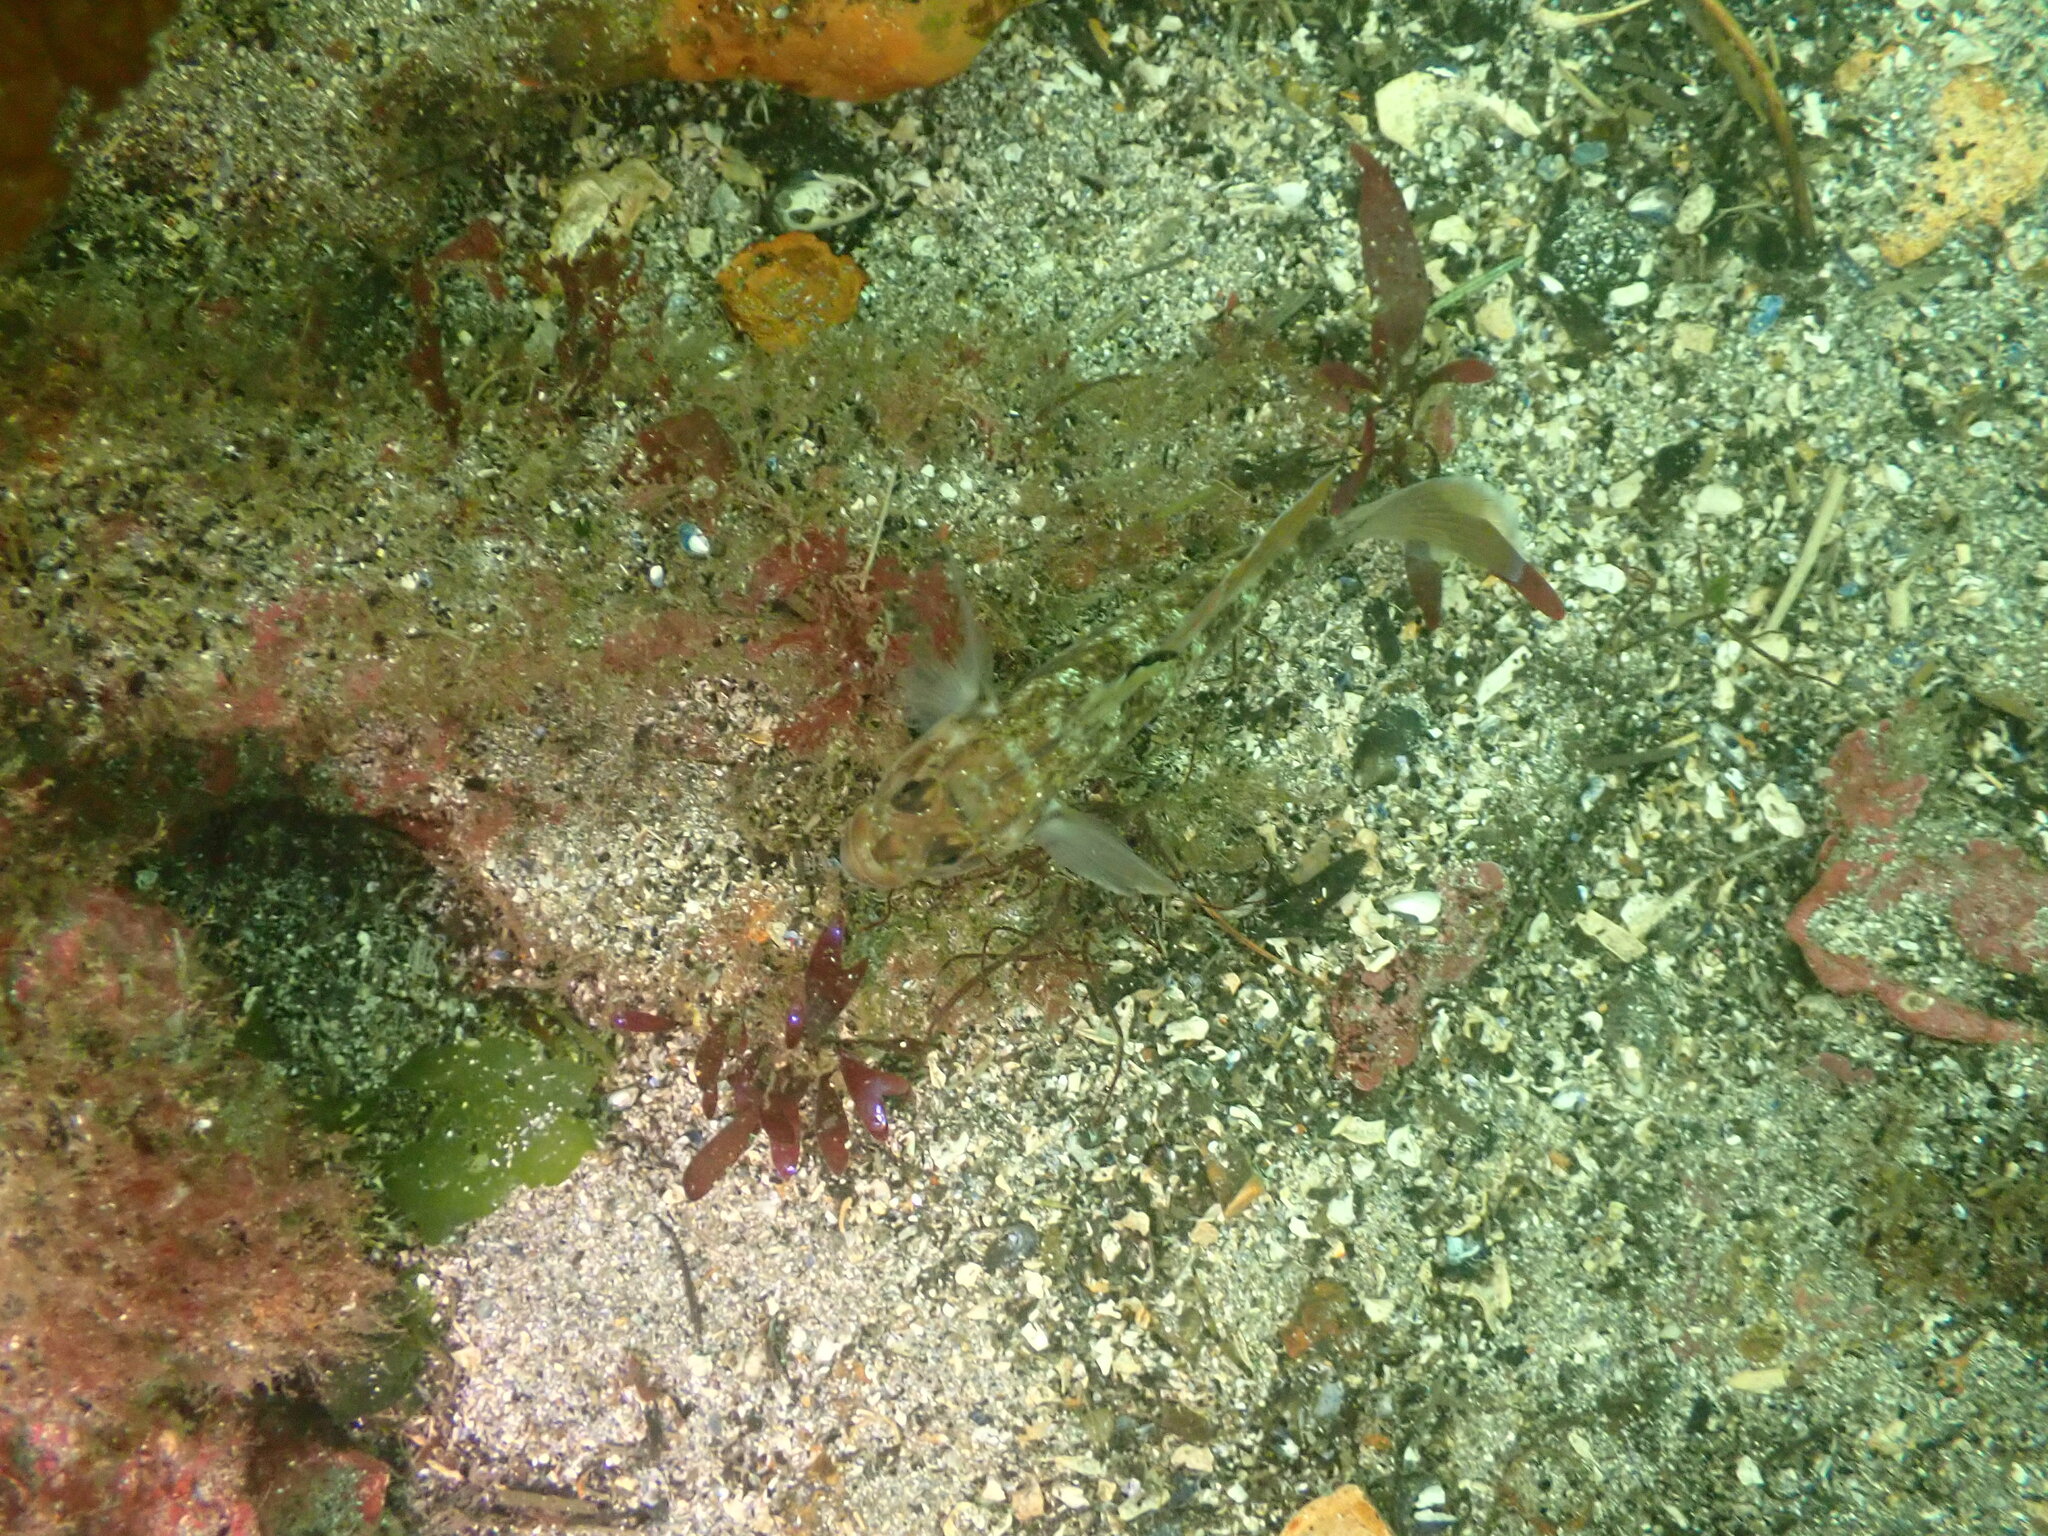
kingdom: Animalia
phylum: Chordata
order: Perciformes
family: Gobiidae
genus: Rhinogobiops
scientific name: Rhinogobiops nicholsii
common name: Blackeye goby
